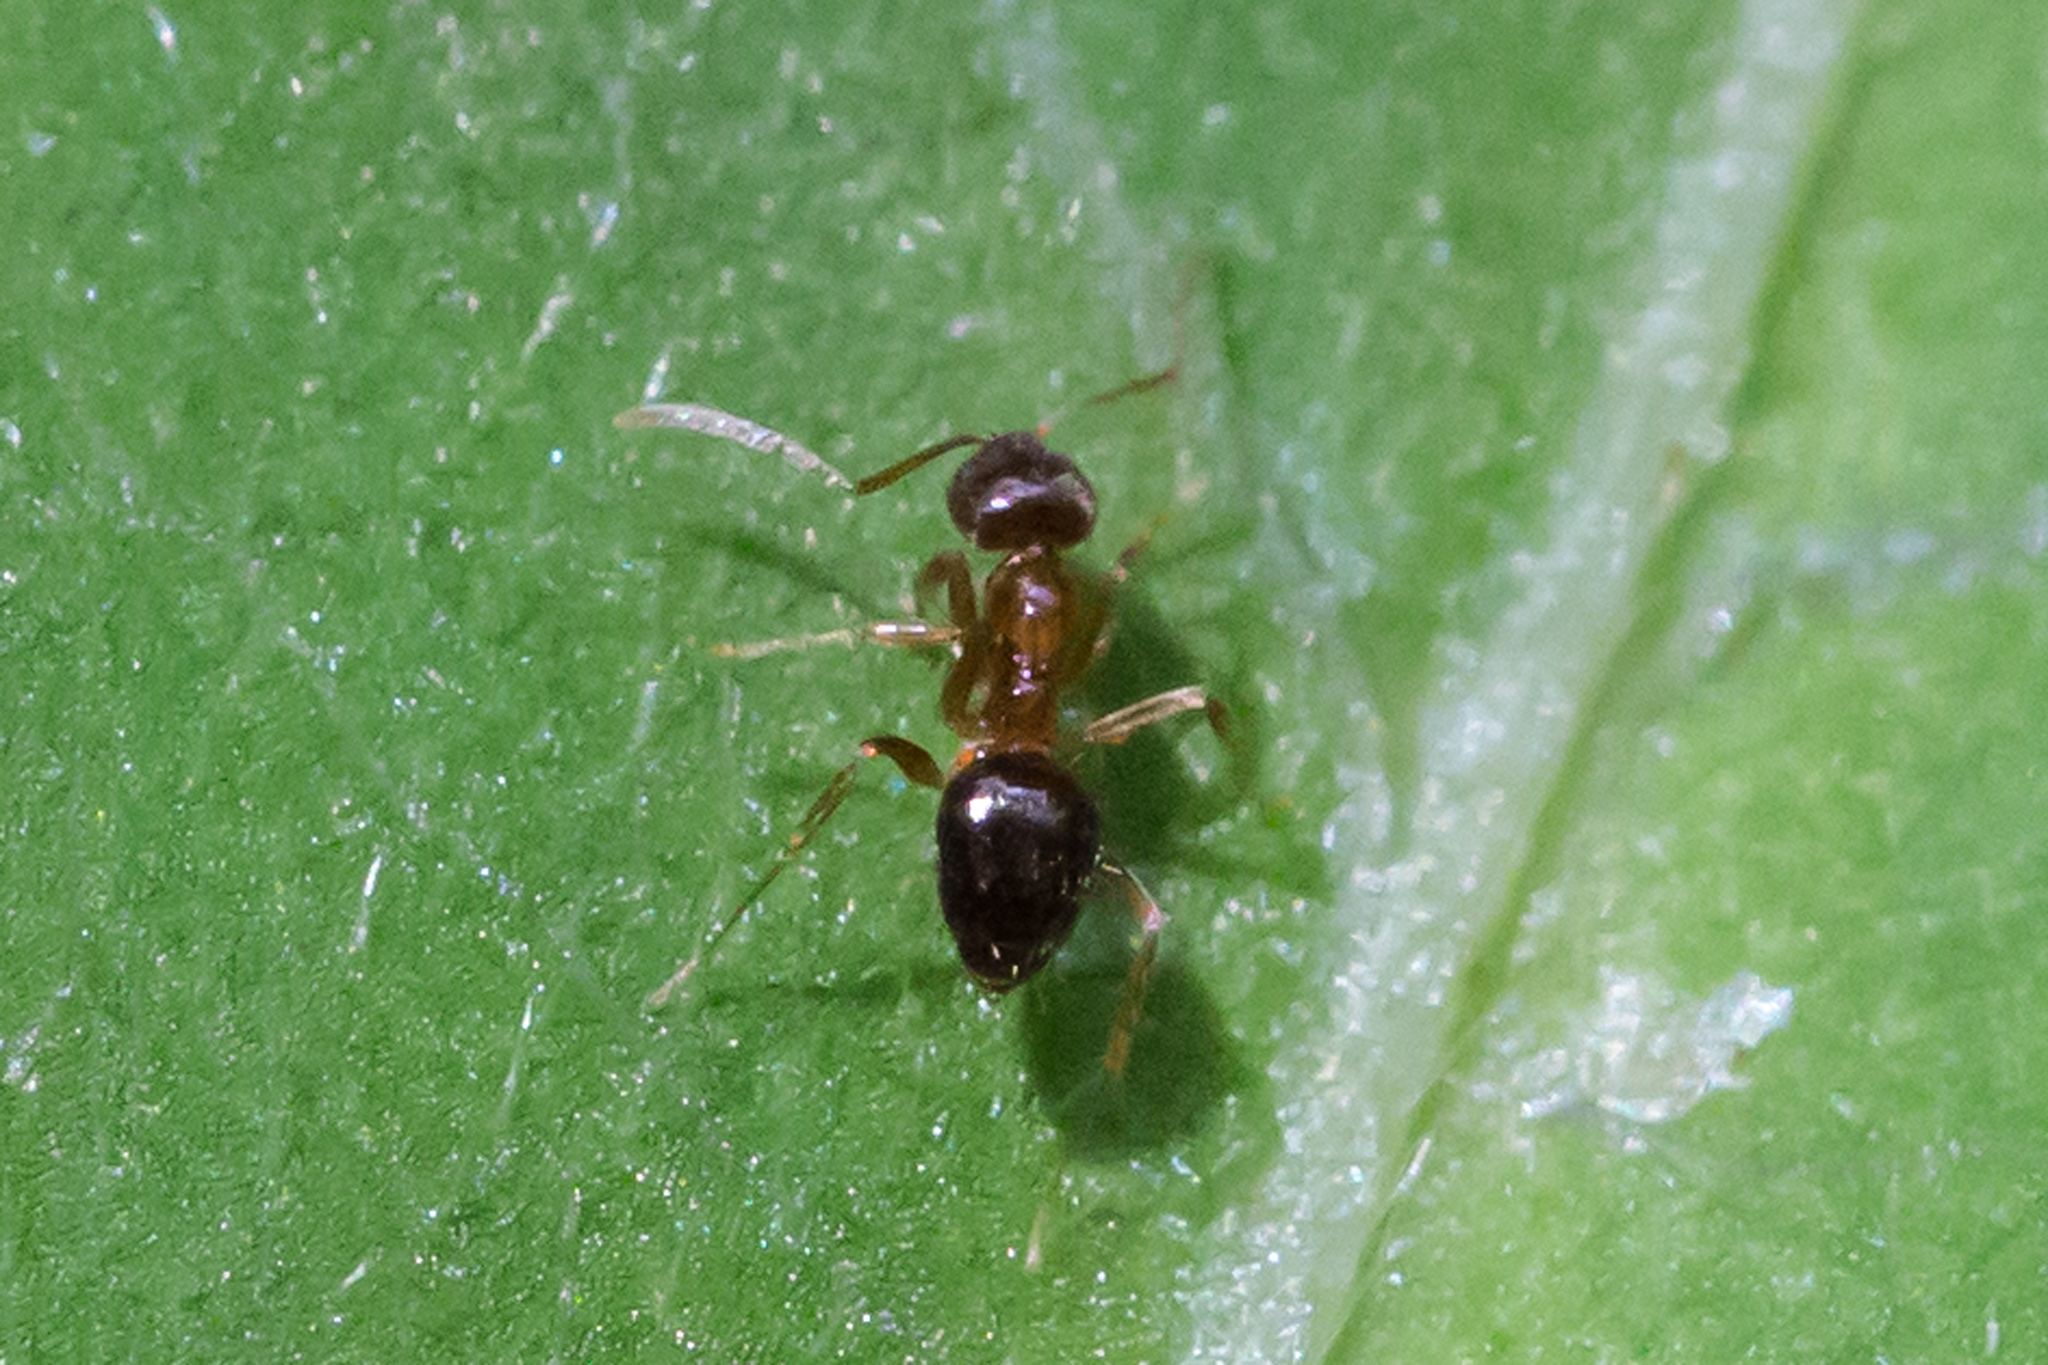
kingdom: Animalia
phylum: Arthropoda
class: Insecta
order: Hymenoptera
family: Formicidae
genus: Paratrechina
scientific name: Paratrechina flavipes
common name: Eastern asian formicine ant
